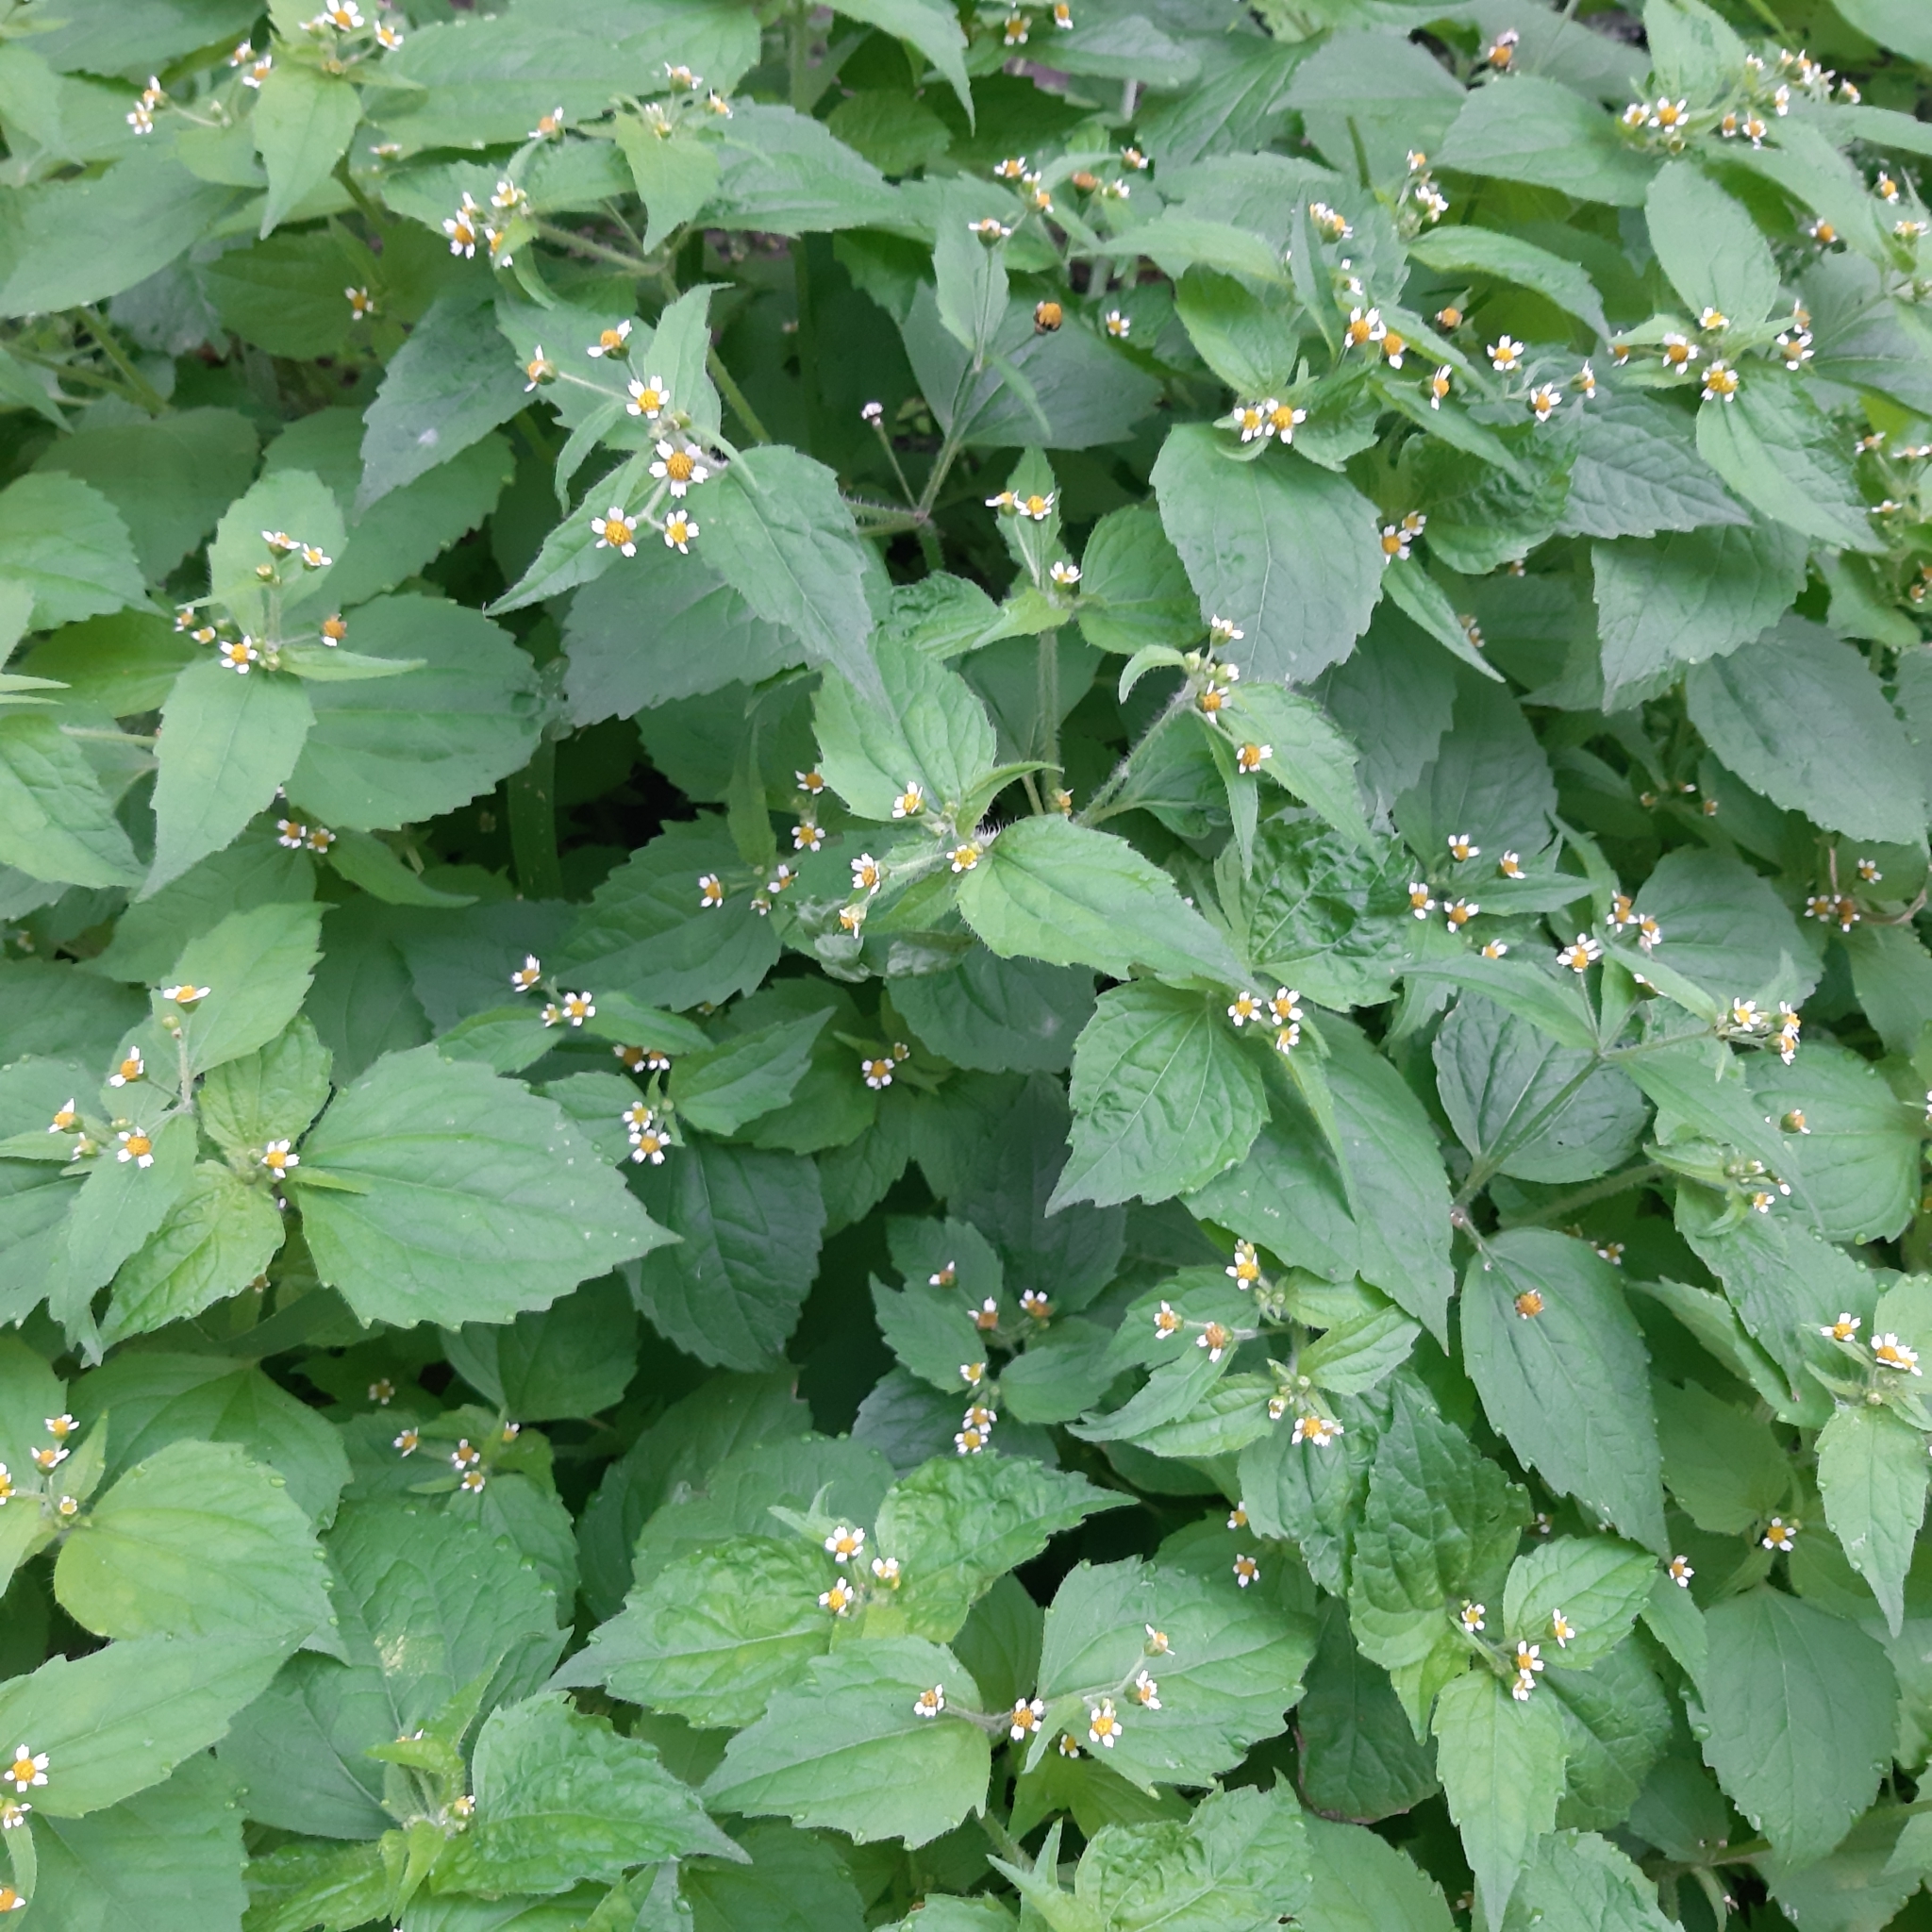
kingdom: Plantae
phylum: Tracheophyta
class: Magnoliopsida
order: Asterales
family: Asteraceae
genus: Galinsoga
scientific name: Galinsoga quadriradiata
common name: Shaggy soldier
